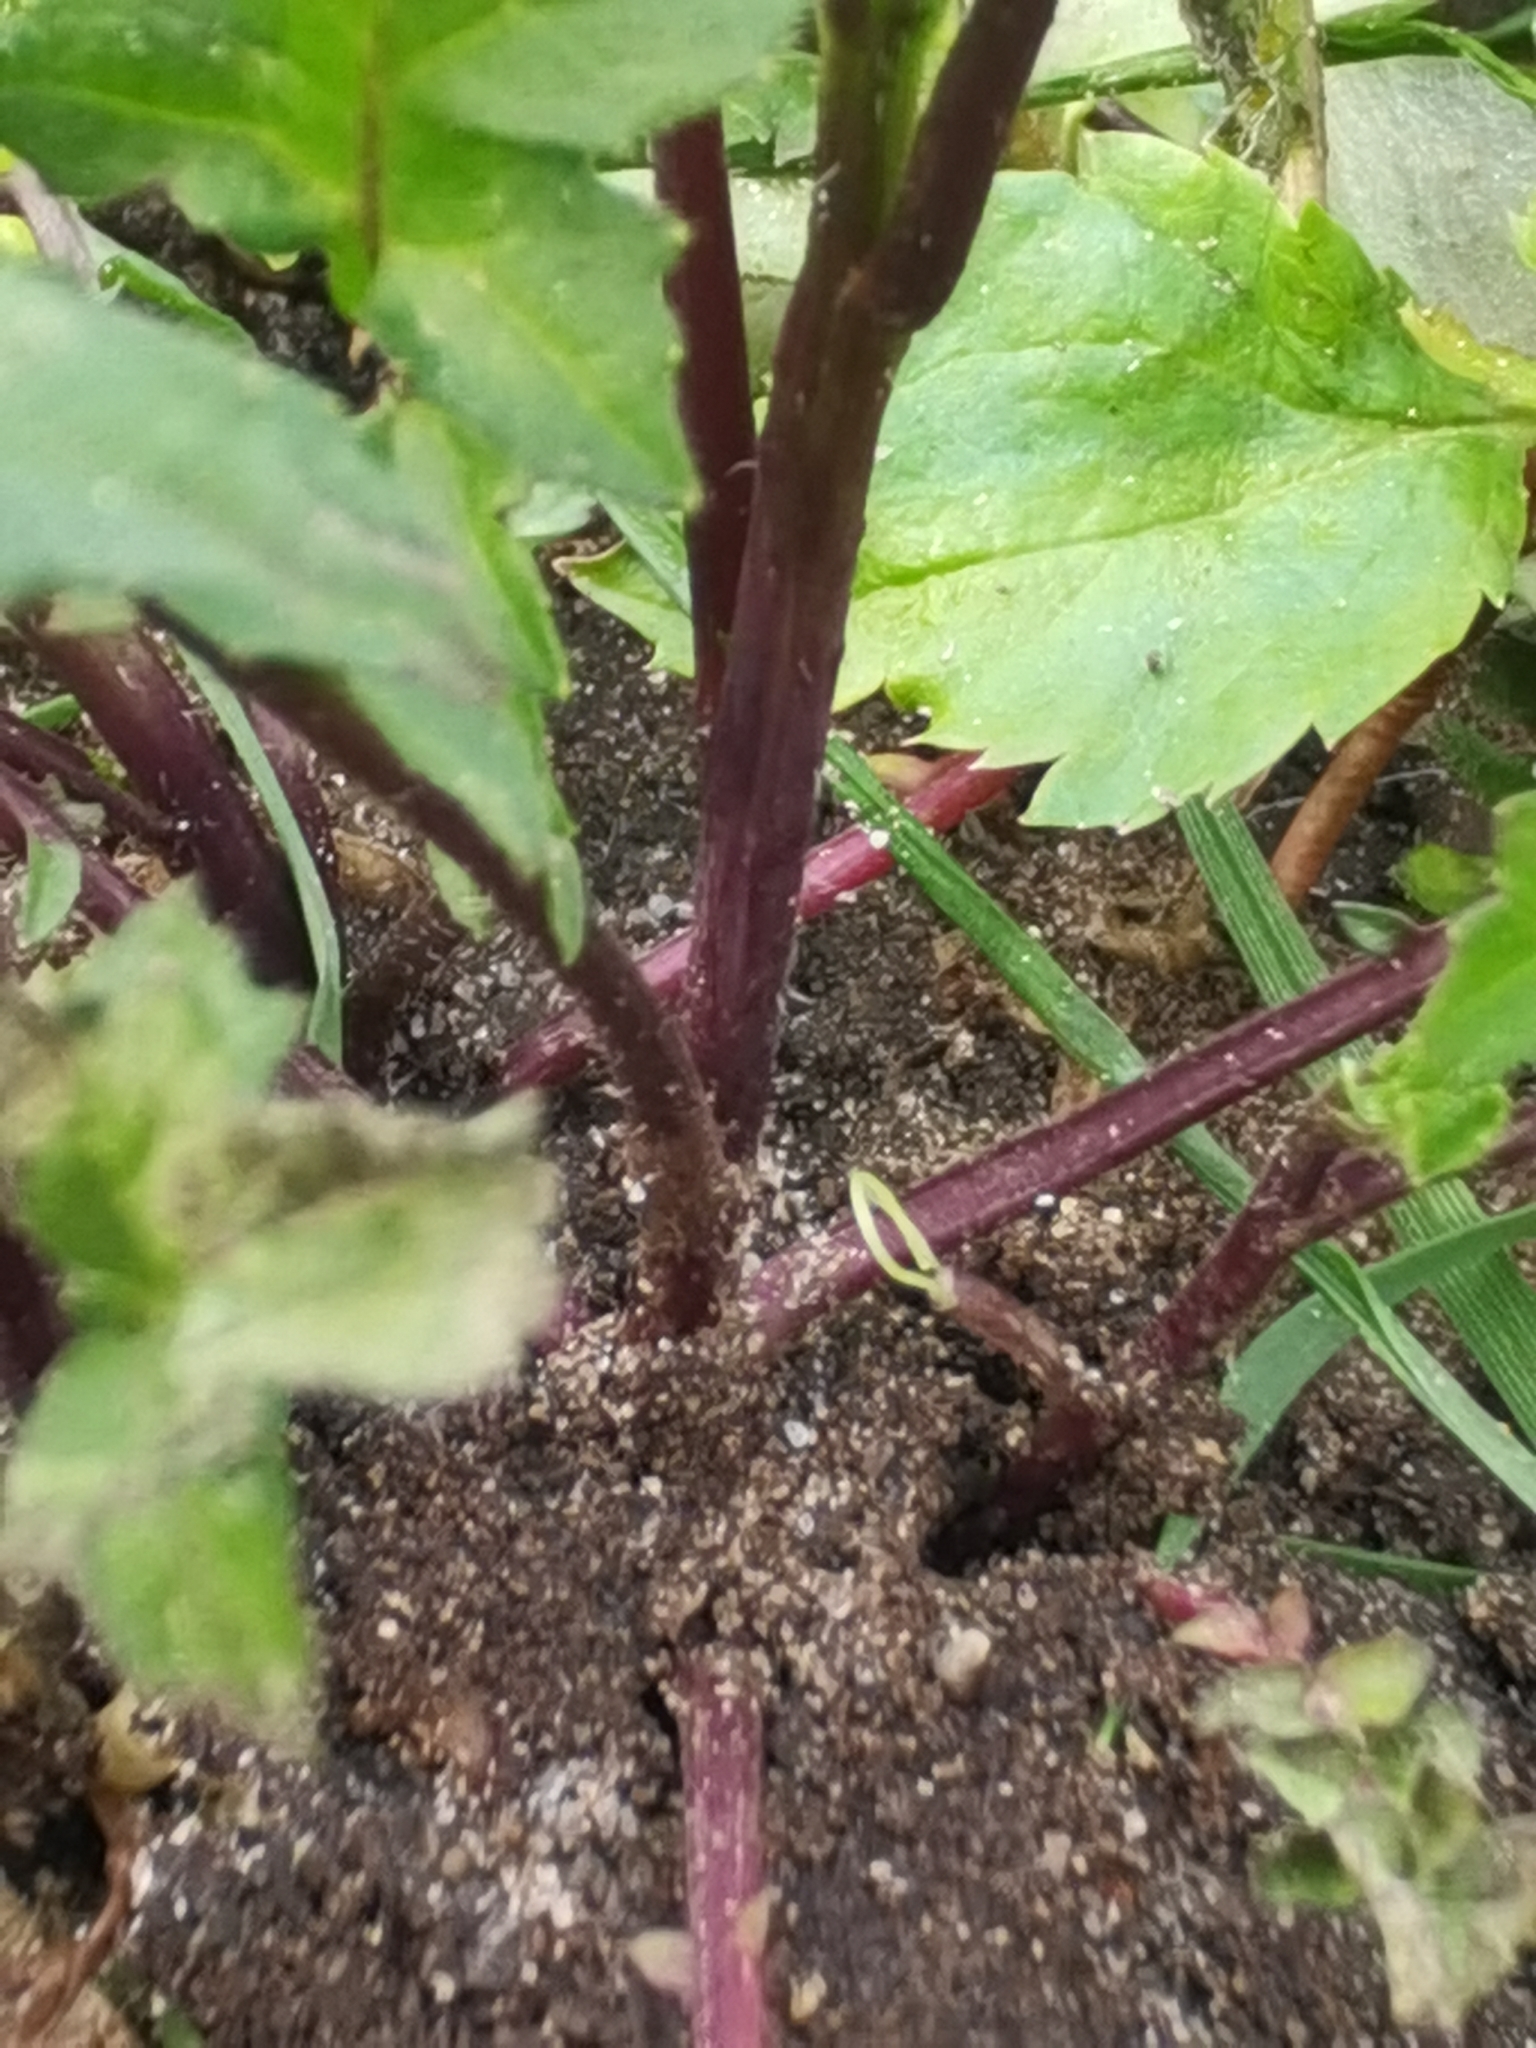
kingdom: Plantae
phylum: Tracheophyta
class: Magnoliopsida
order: Brassicales
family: Brassicaceae
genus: Sisymbrium
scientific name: Sisymbrium officinale
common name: Hedge mustard
